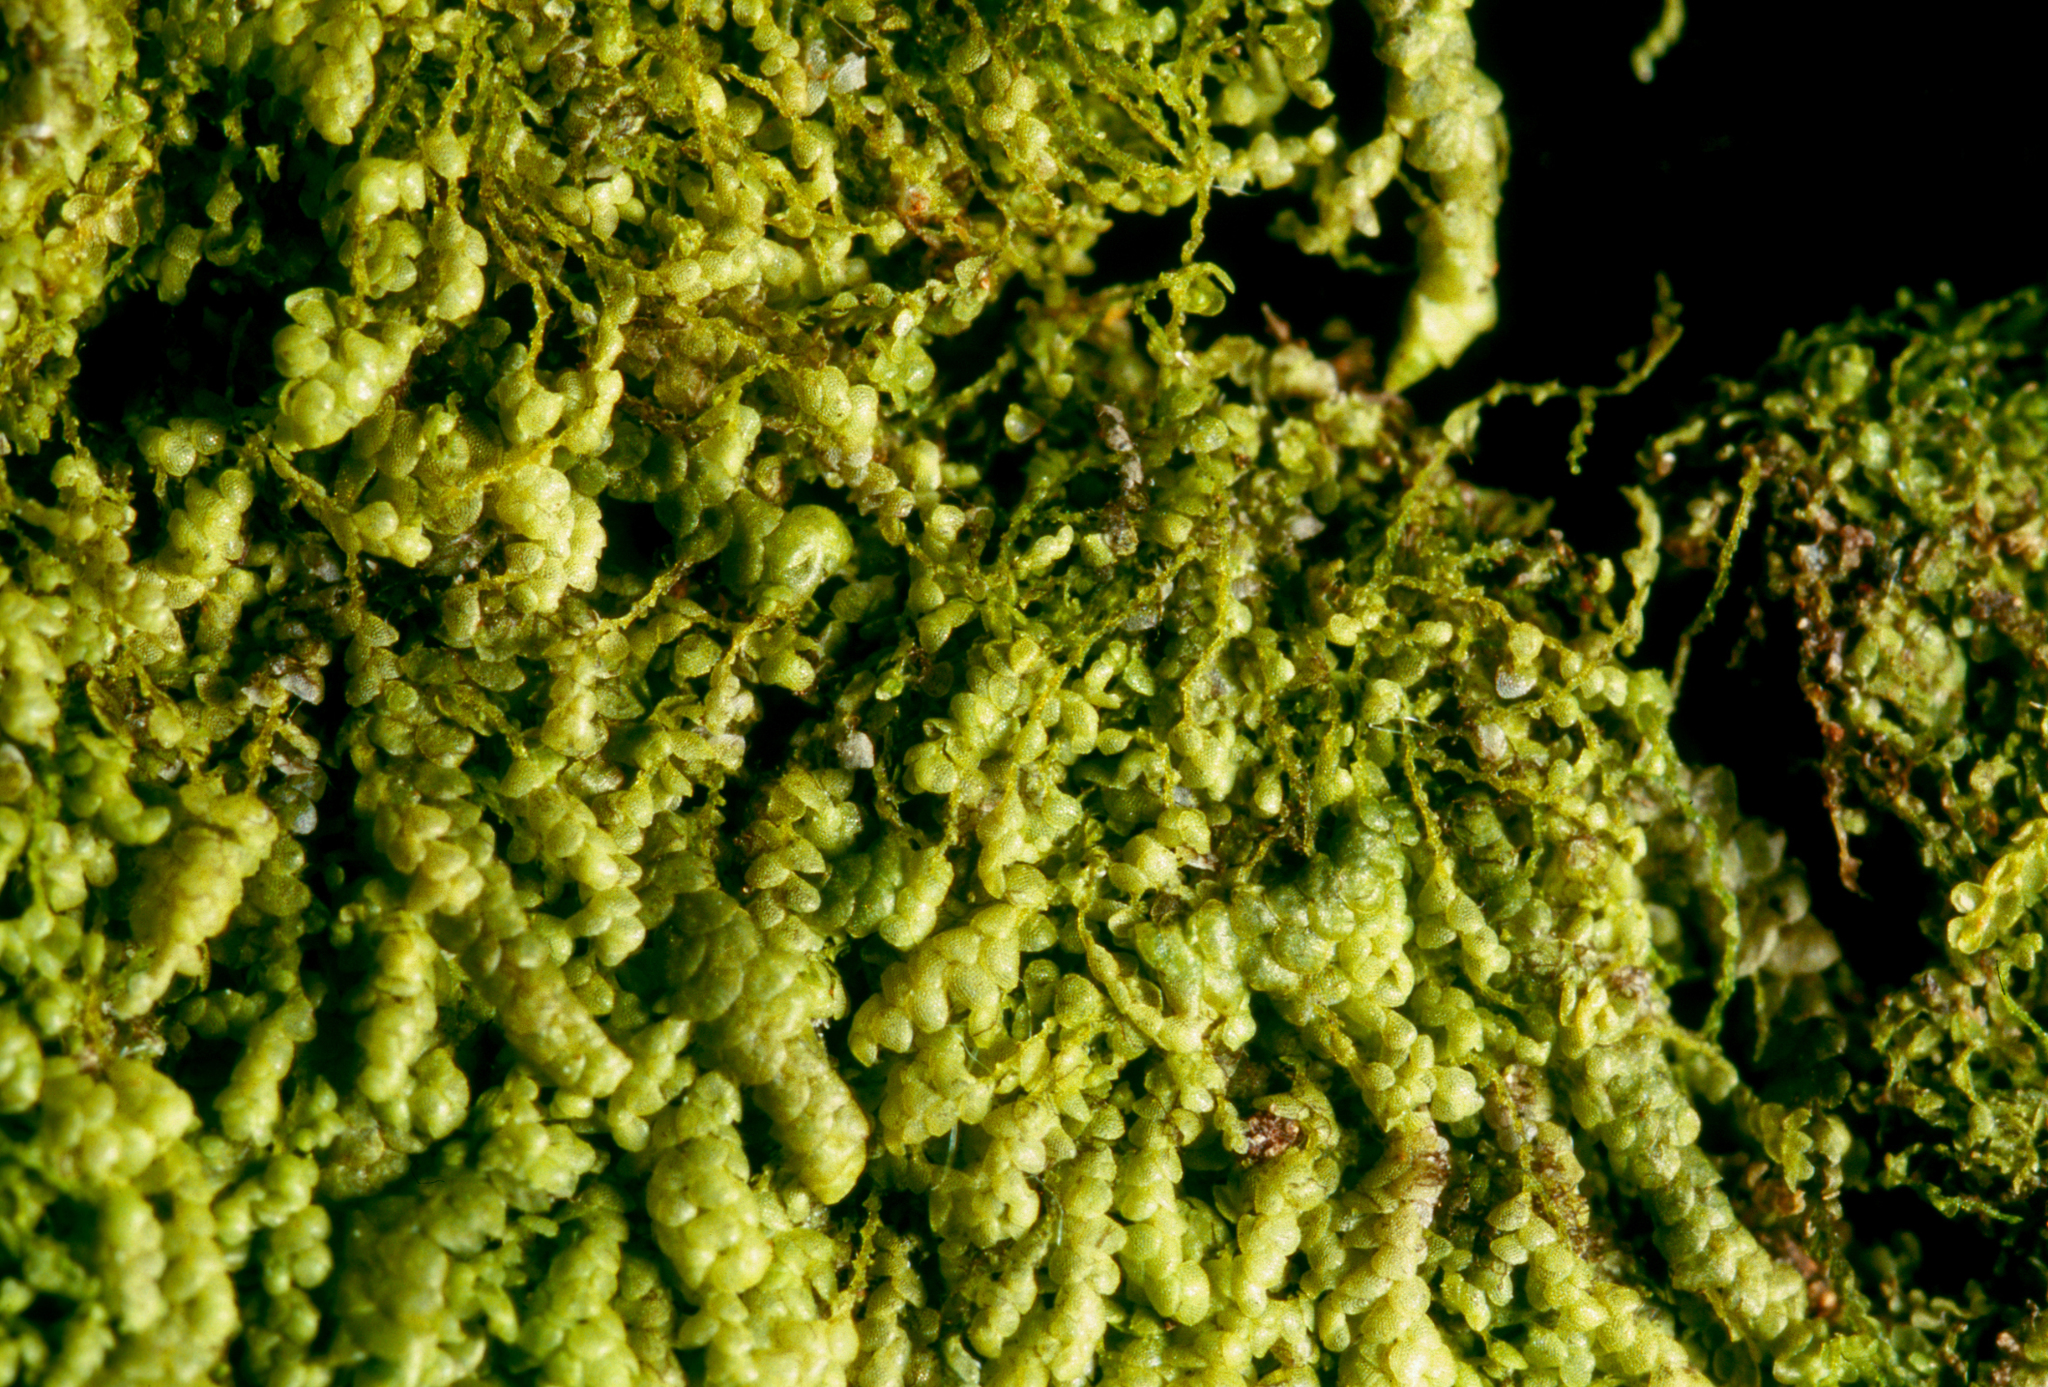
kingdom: Plantae
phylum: Marchantiophyta
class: Jungermanniopsida
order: Porellales
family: Lejeuneaceae
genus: Lejeunea
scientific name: Lejeunea schusteri
